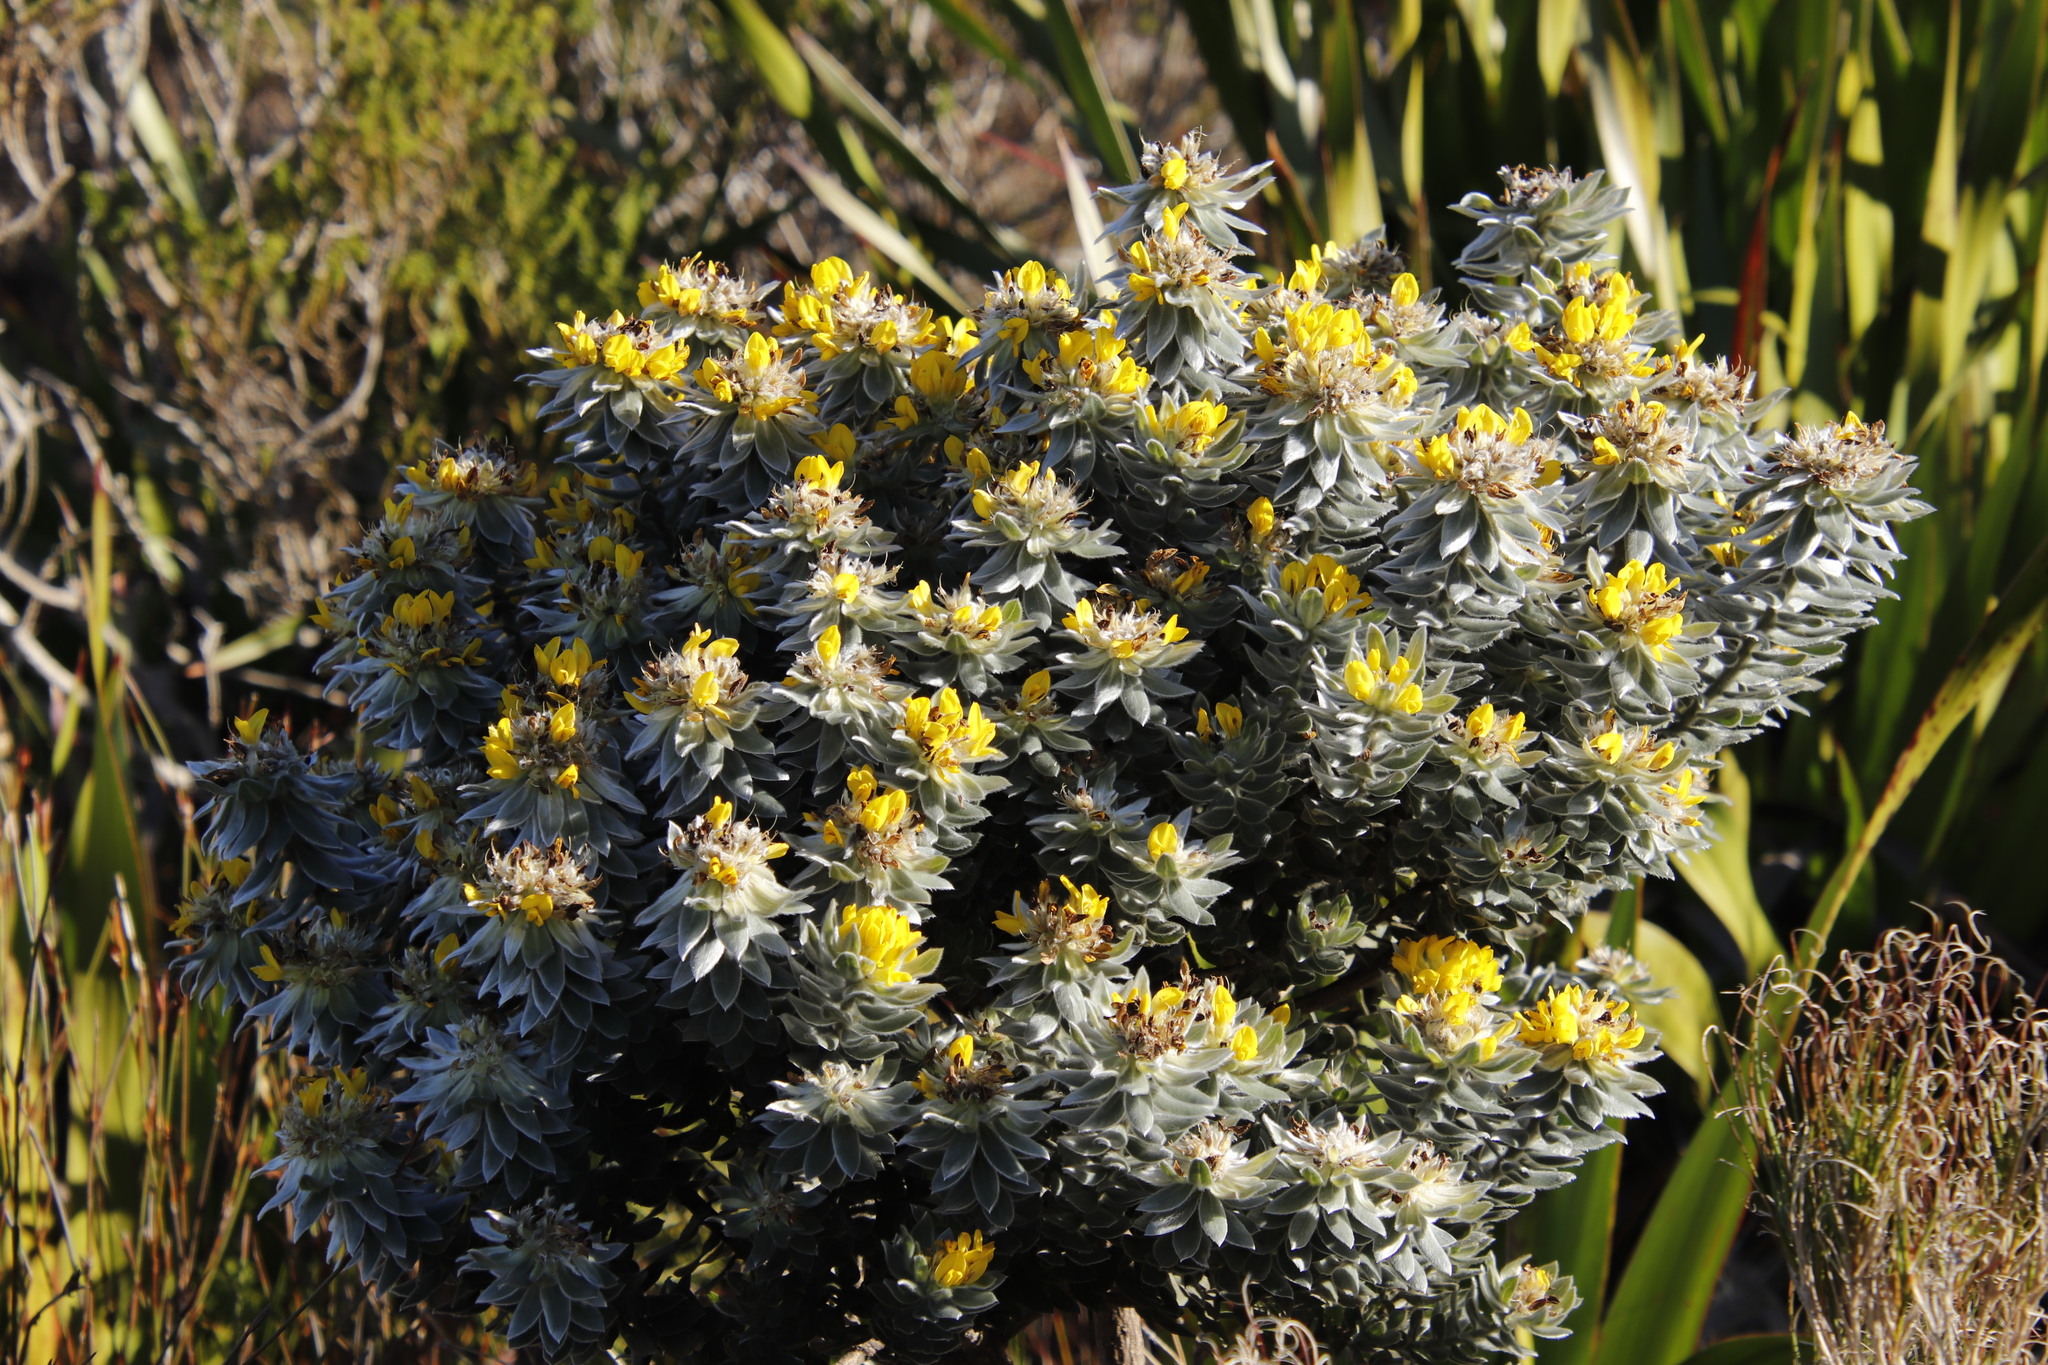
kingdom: Plantae
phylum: Tracheophyta
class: Magnoliopsida
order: Fabales
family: Fabaceae
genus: Xiphotheca
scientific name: Xiphotheca fruticosa
